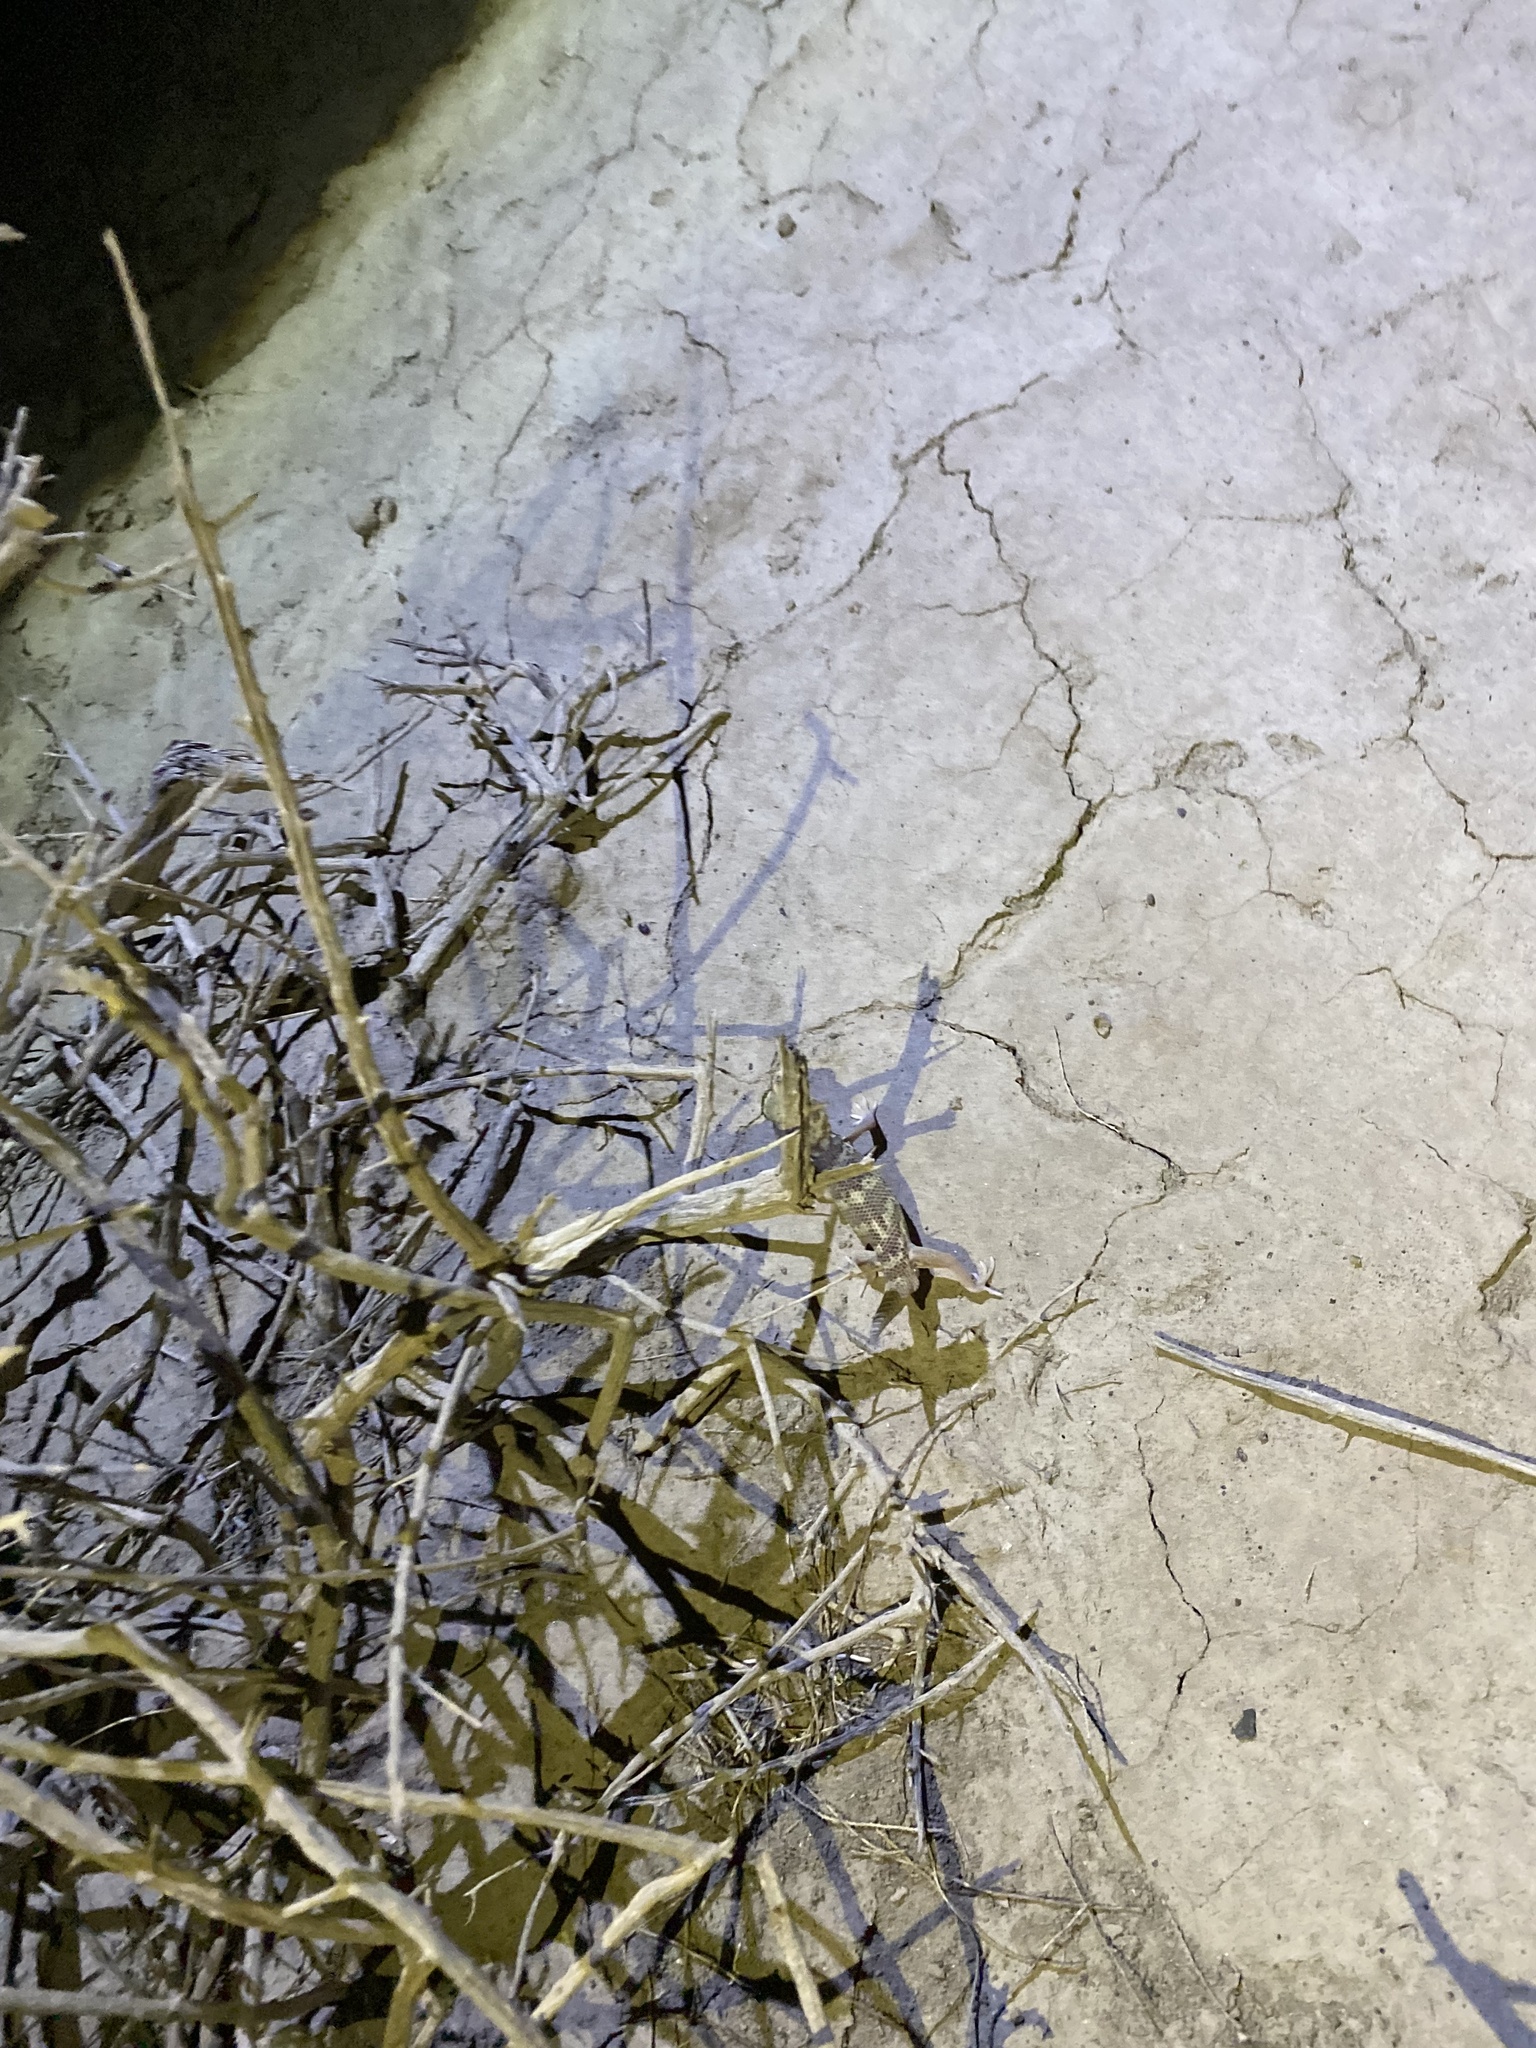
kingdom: Animalia
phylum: Chordata
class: Squamata
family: Sphaerodactylidae
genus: Teratoscincus
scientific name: Teratoscincus bedriagai
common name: Bedriaga's plate-tailed gecko
